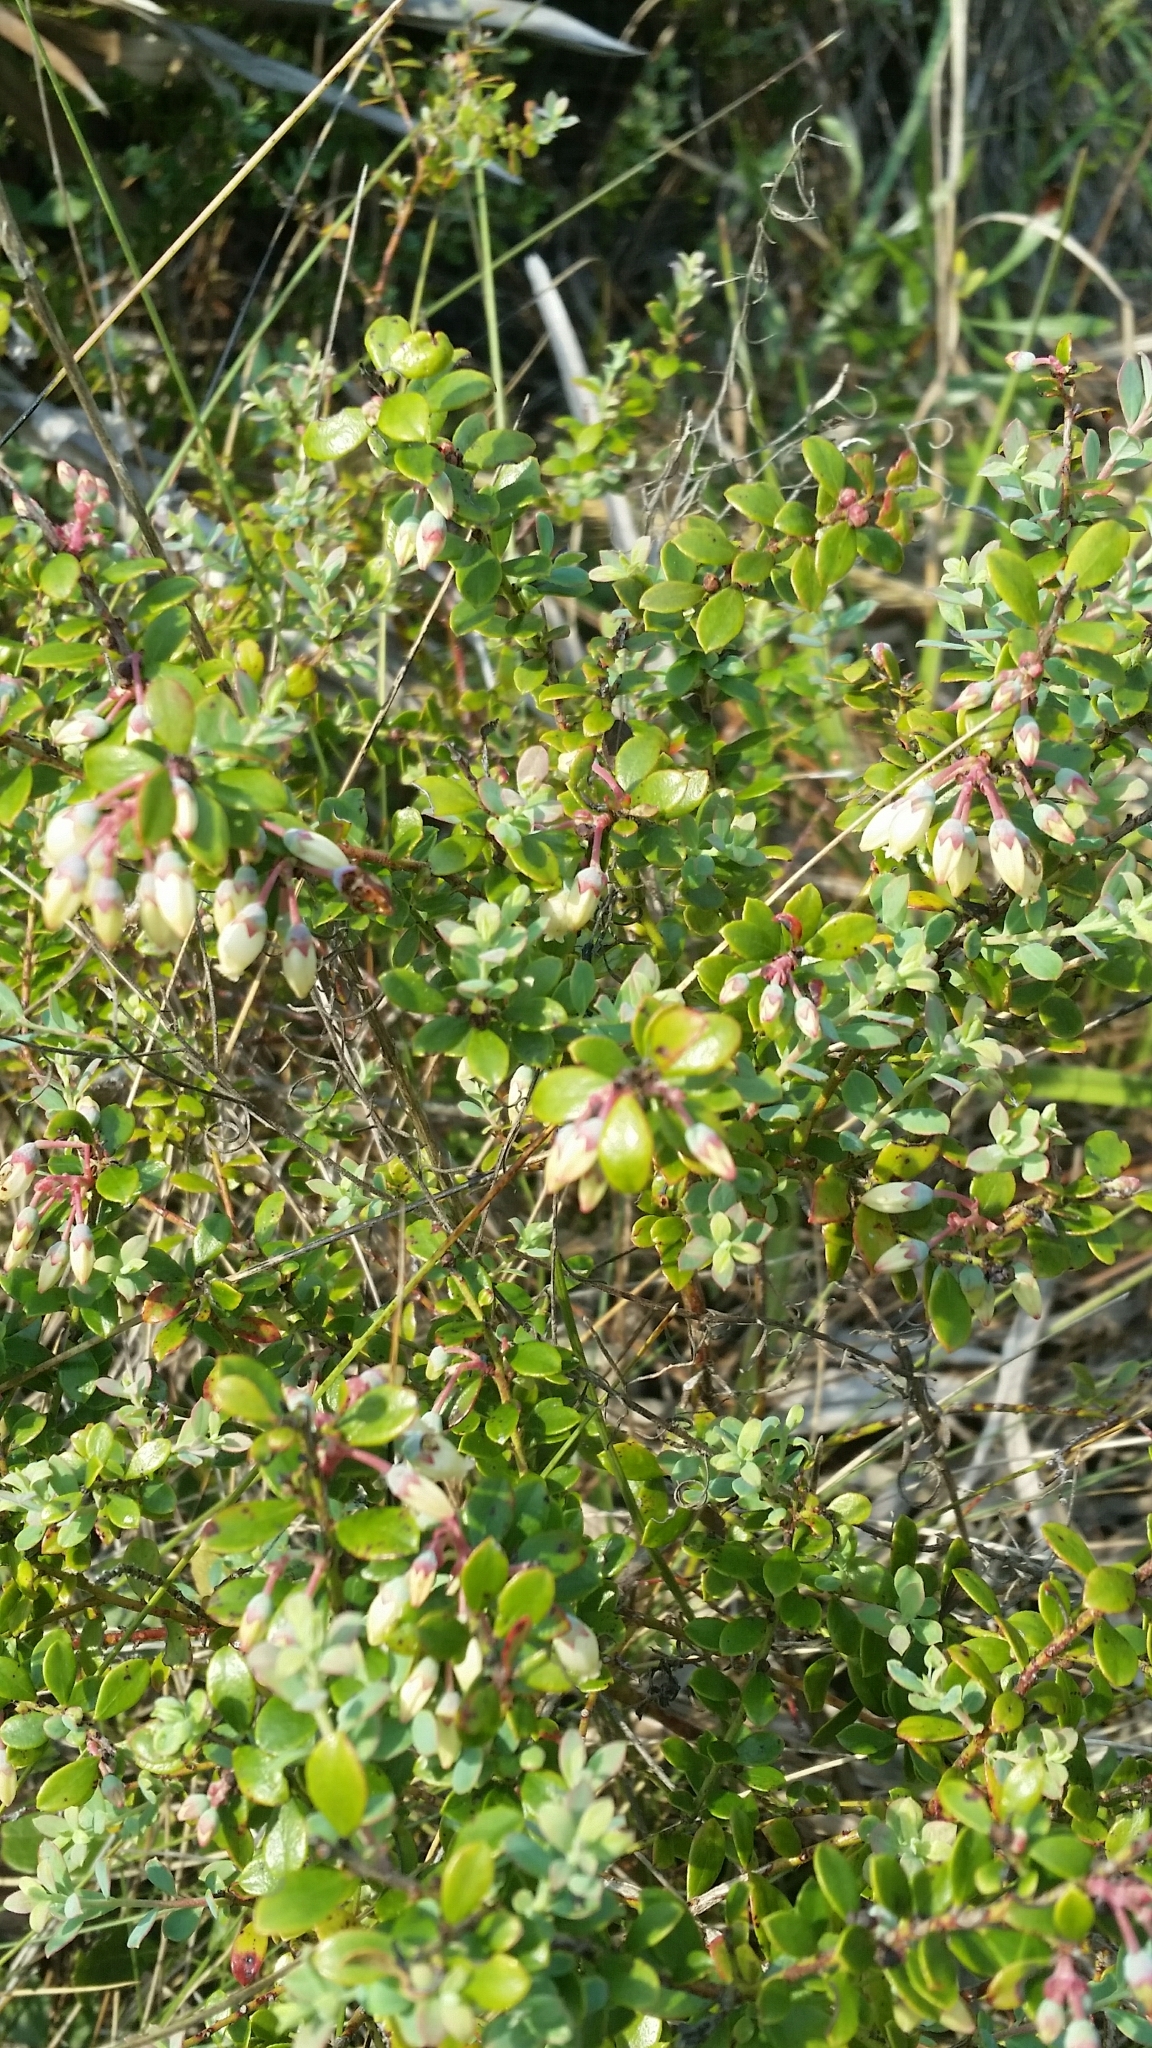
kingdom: Plantae
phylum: Tracheophyta
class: Magnoliopsida
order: Ericales
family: Ericaceae
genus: Vaccinium
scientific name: Vaccinium darrowii
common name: Darrow's blueberry
